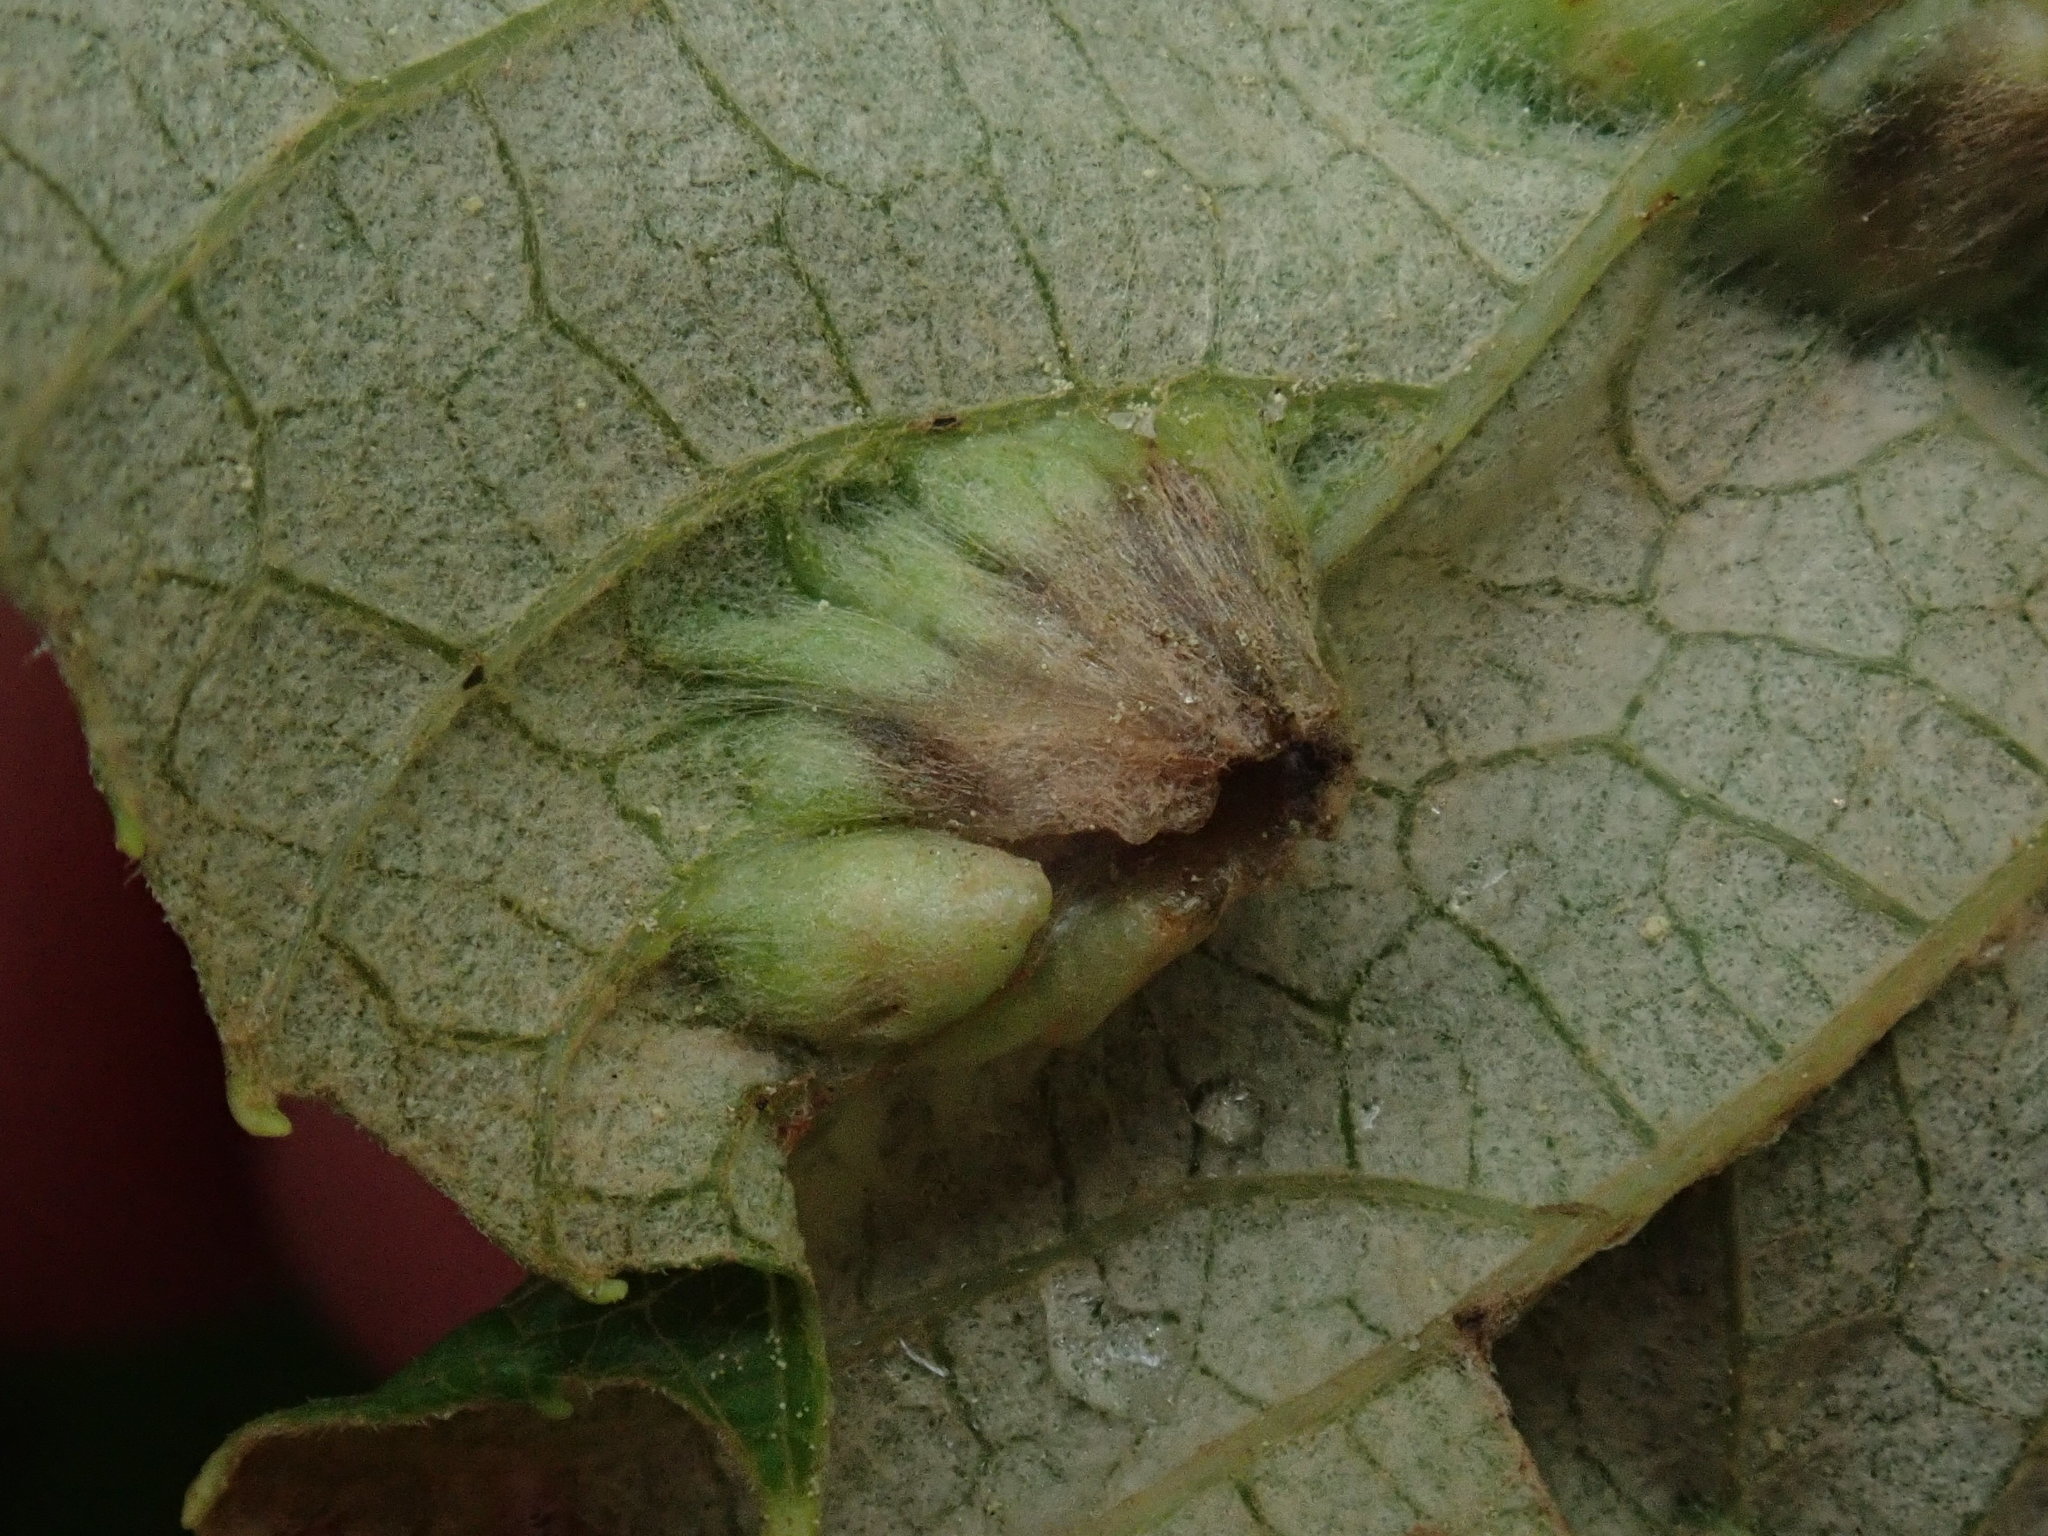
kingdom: Animalia
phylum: Arthropoda
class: Insecta
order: Lepidoptera
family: Heliozelidae
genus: Heliozela
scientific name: Heliozela aesella
